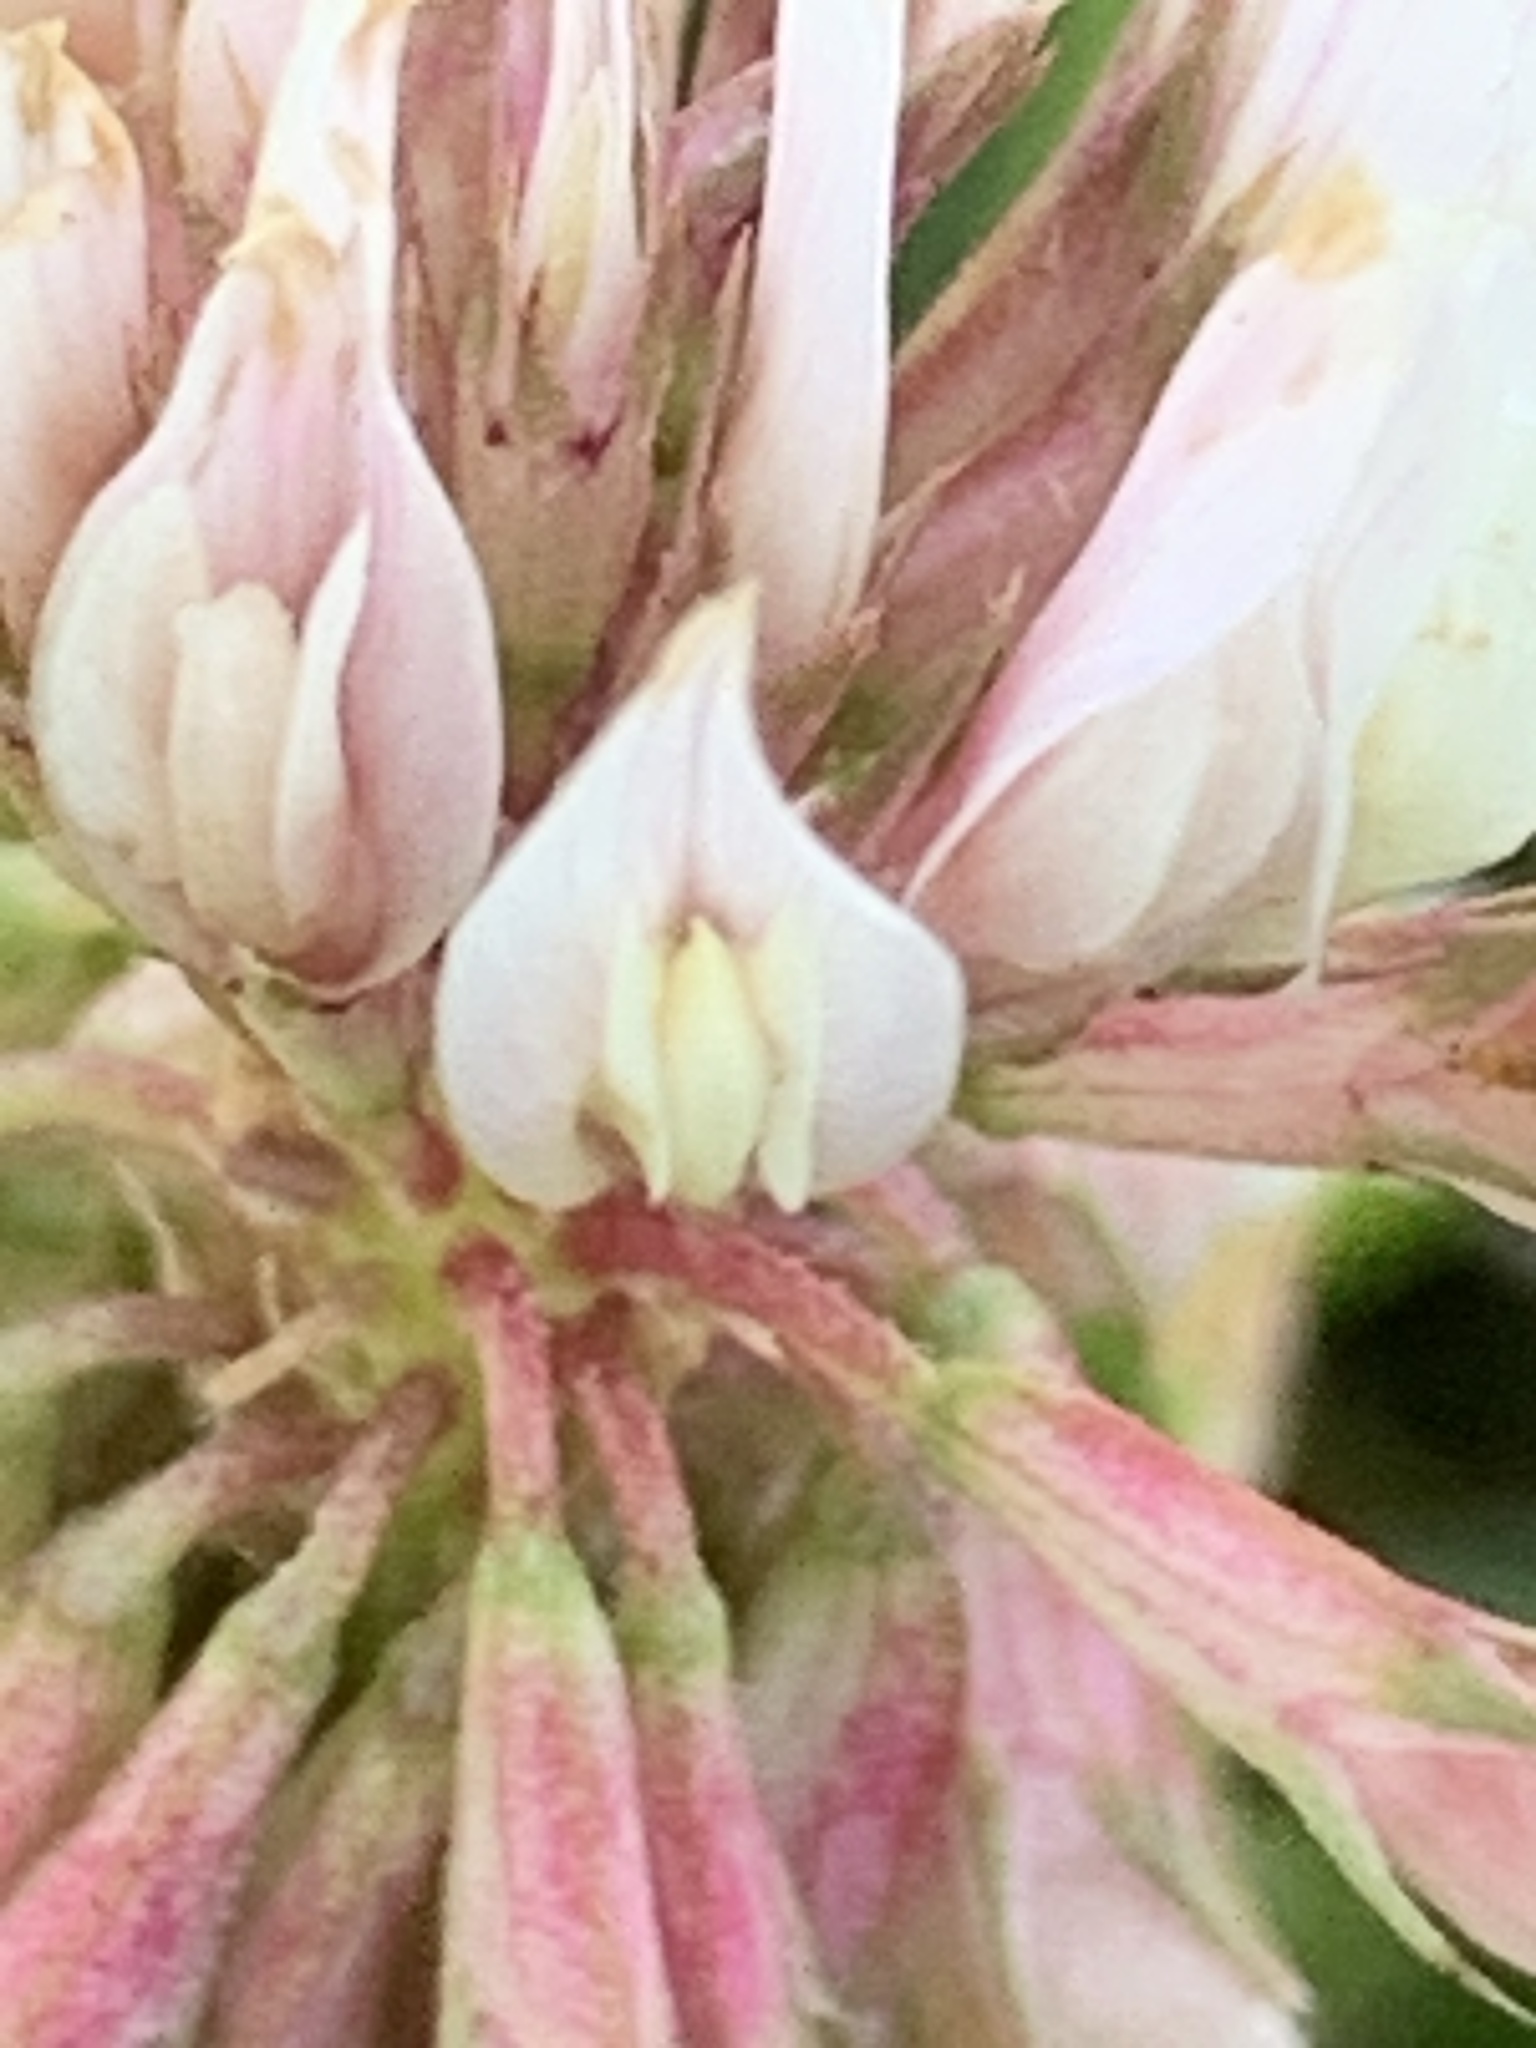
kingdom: Plantae
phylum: Tracheophyta
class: Magnoliopsida
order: Fabales
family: Fabaceae
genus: Trifolium
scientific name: Trifolium repens
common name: White clover
